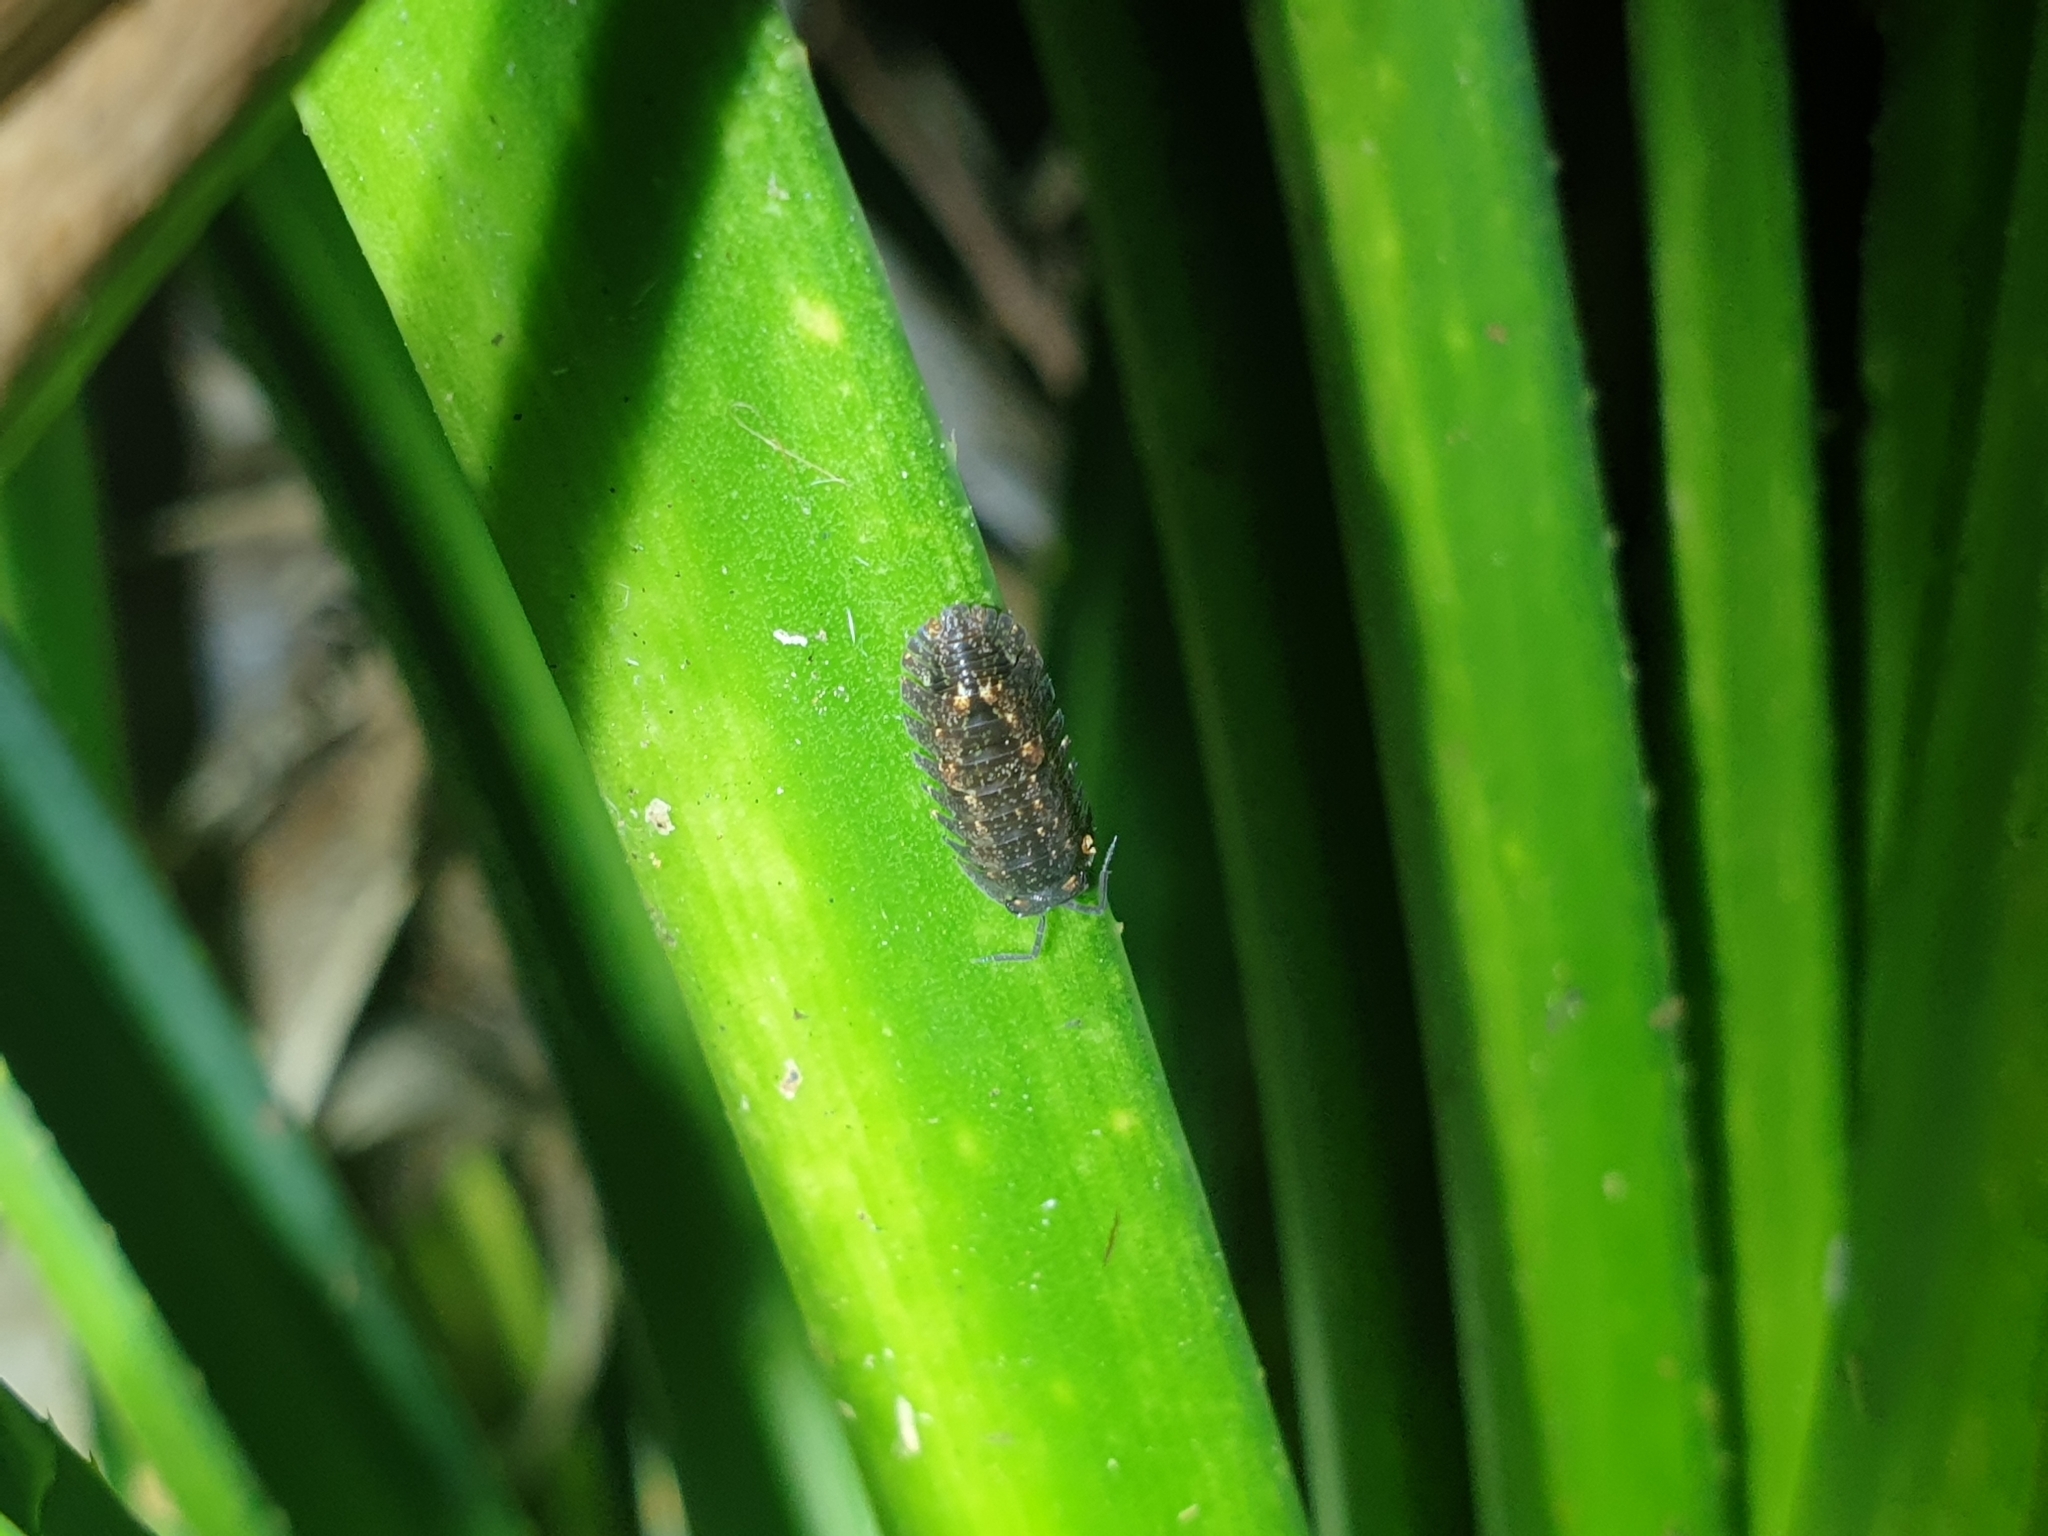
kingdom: Animalia
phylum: Arthropoda
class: Malacostraca
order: Isopoda
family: Armadillidae
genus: Cubaris
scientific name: Cubaris tarangensis
